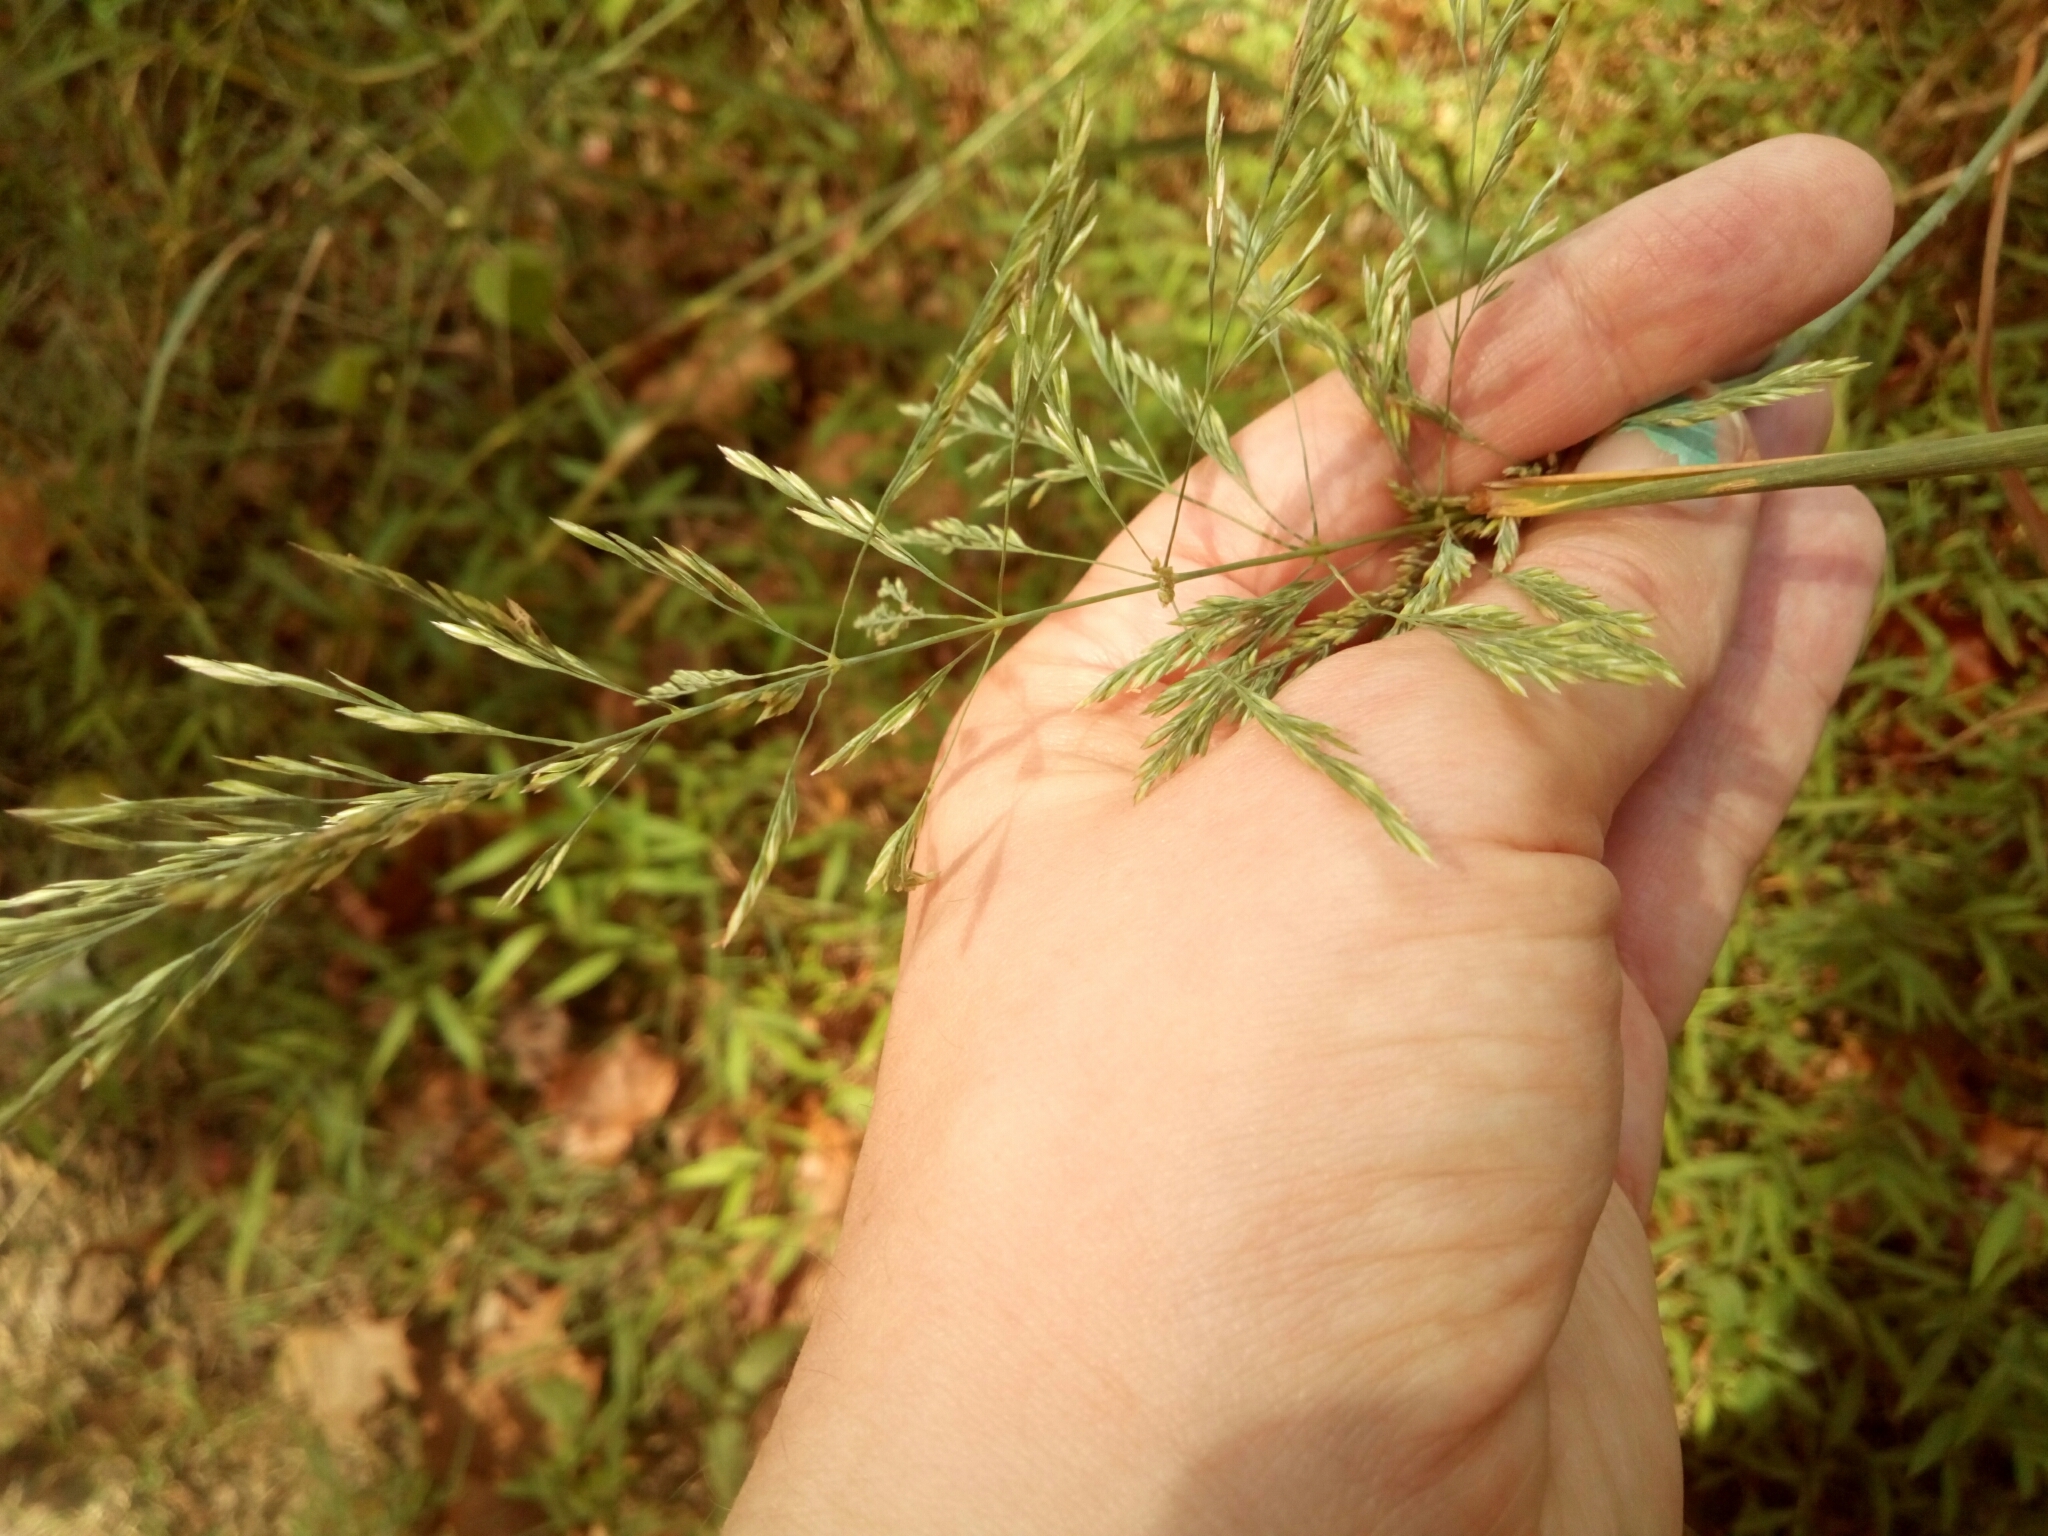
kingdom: Plantae
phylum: Tracheophyta
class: Liliopsida
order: Poales
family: Poaceae
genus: Cinna
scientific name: Cinna arundinacea
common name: Stout woodreed
